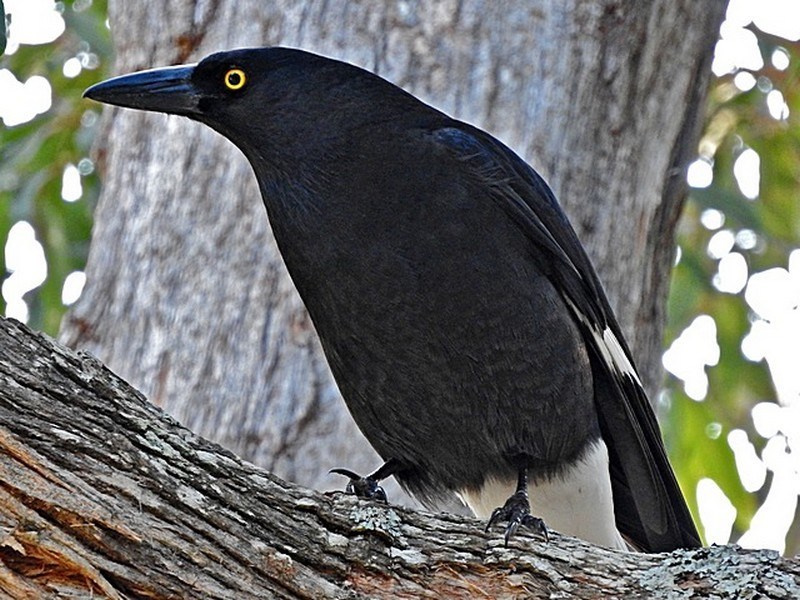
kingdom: Animalia
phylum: Chordata
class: Aves
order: Passeriformes
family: Cracticidae
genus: Strepera
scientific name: Strepera graculina
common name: Pied currawong
